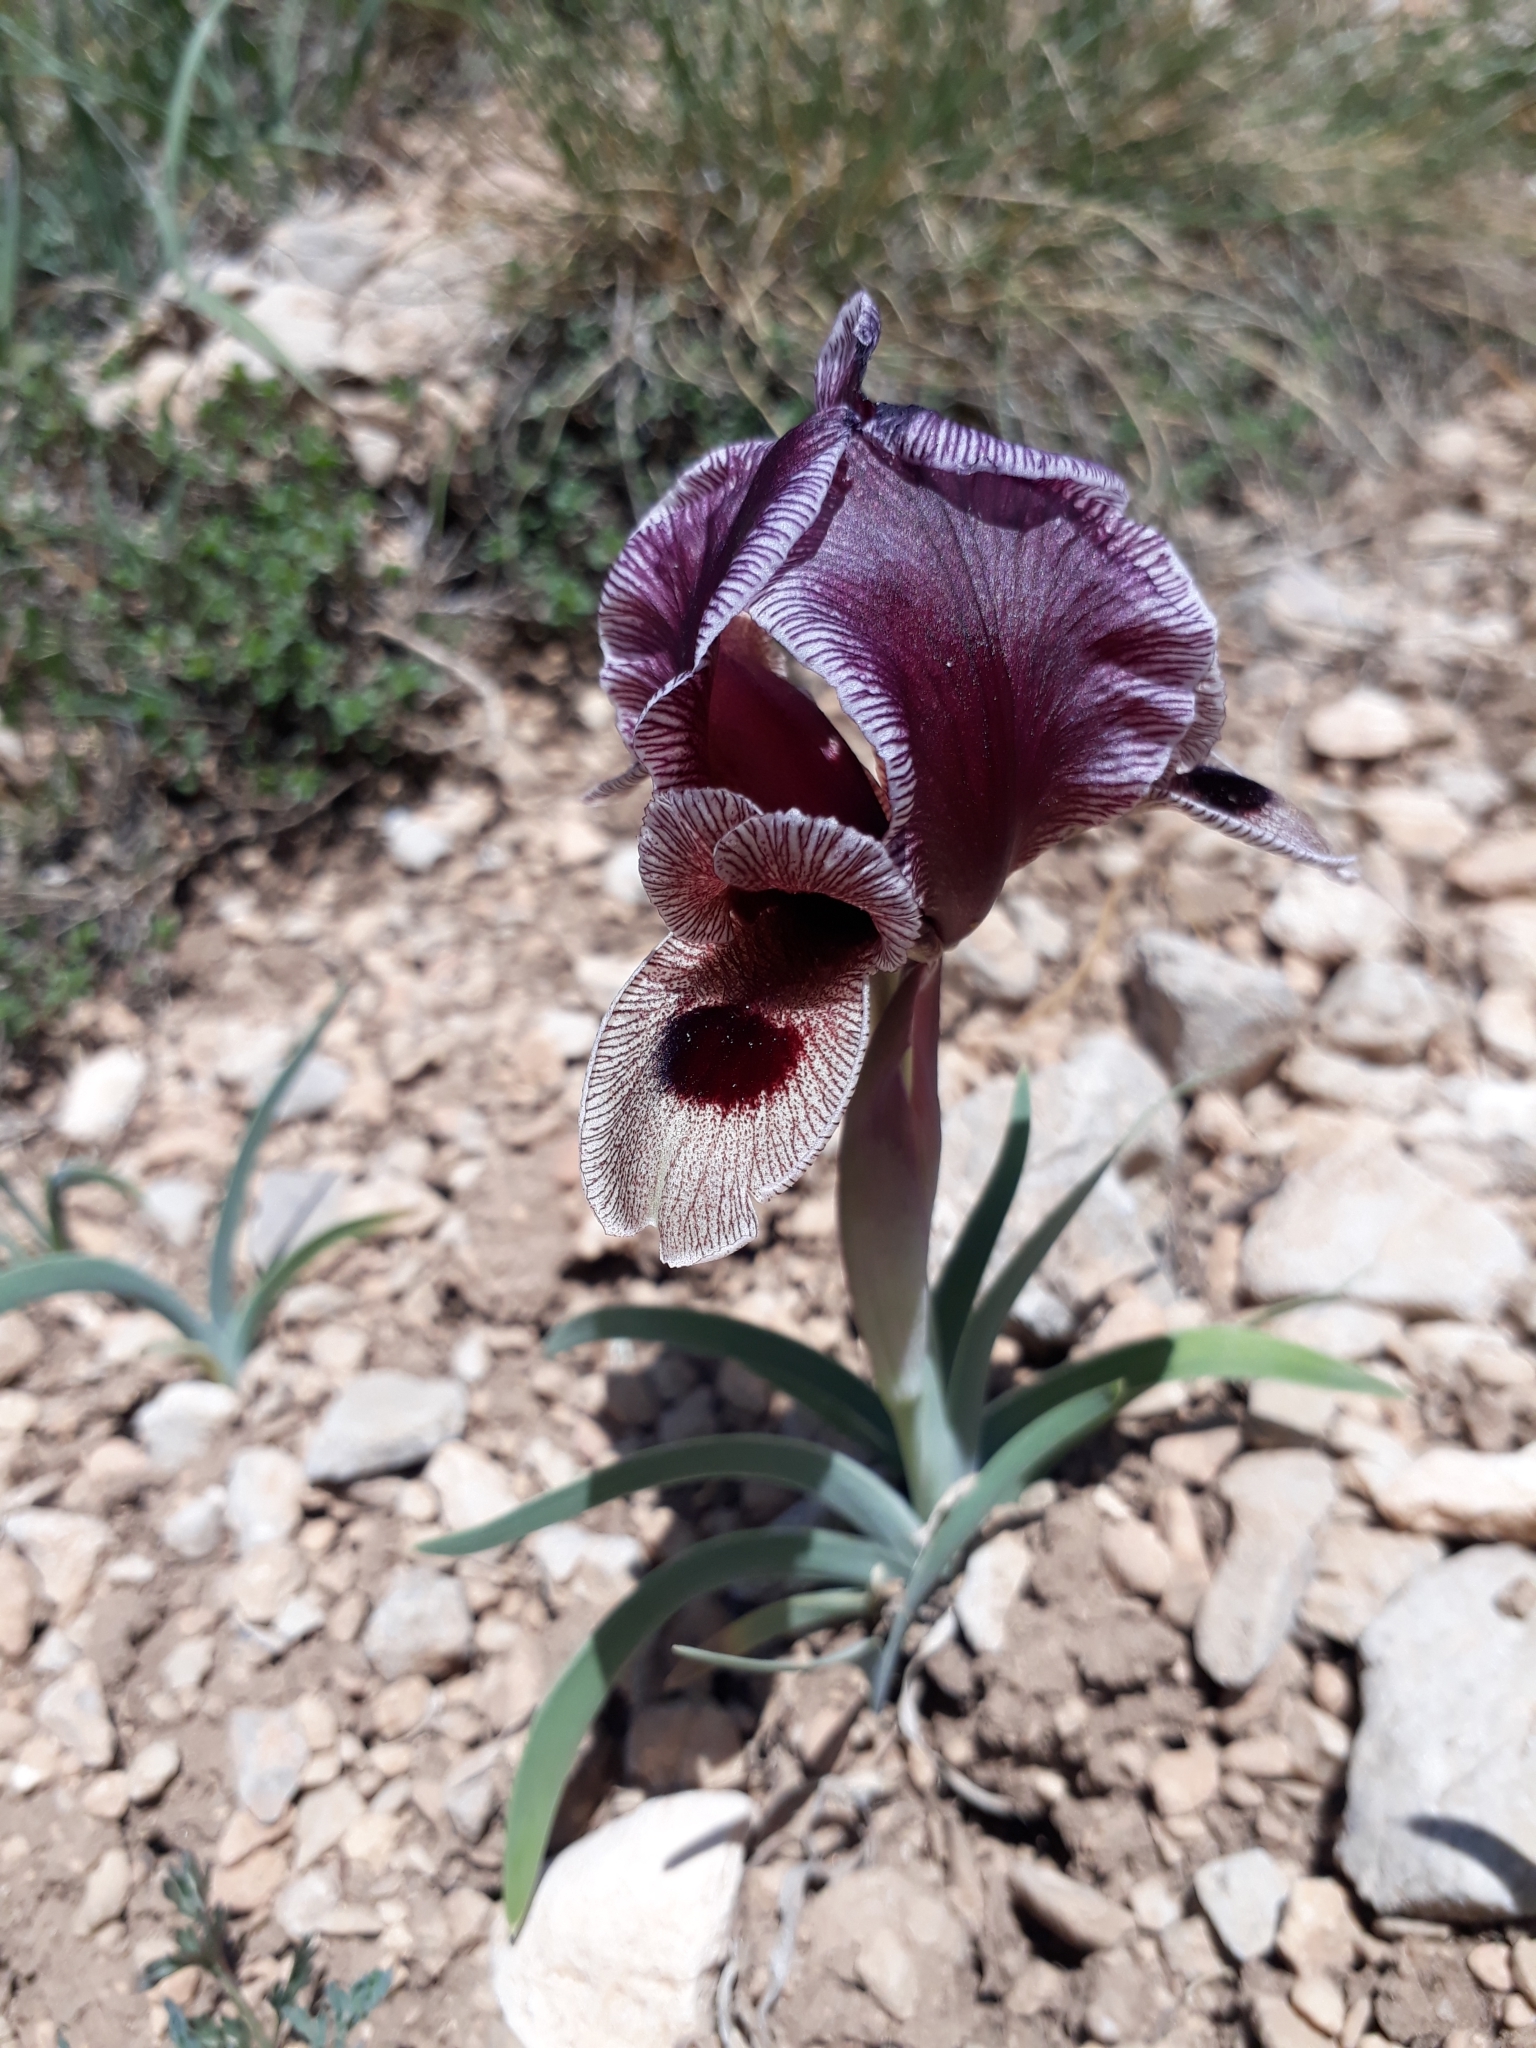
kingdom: Plantae
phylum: Tracheophyta
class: Liliopsida
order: Asparagales
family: Iridaceae
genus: Iris
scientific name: Iris acutiloba
